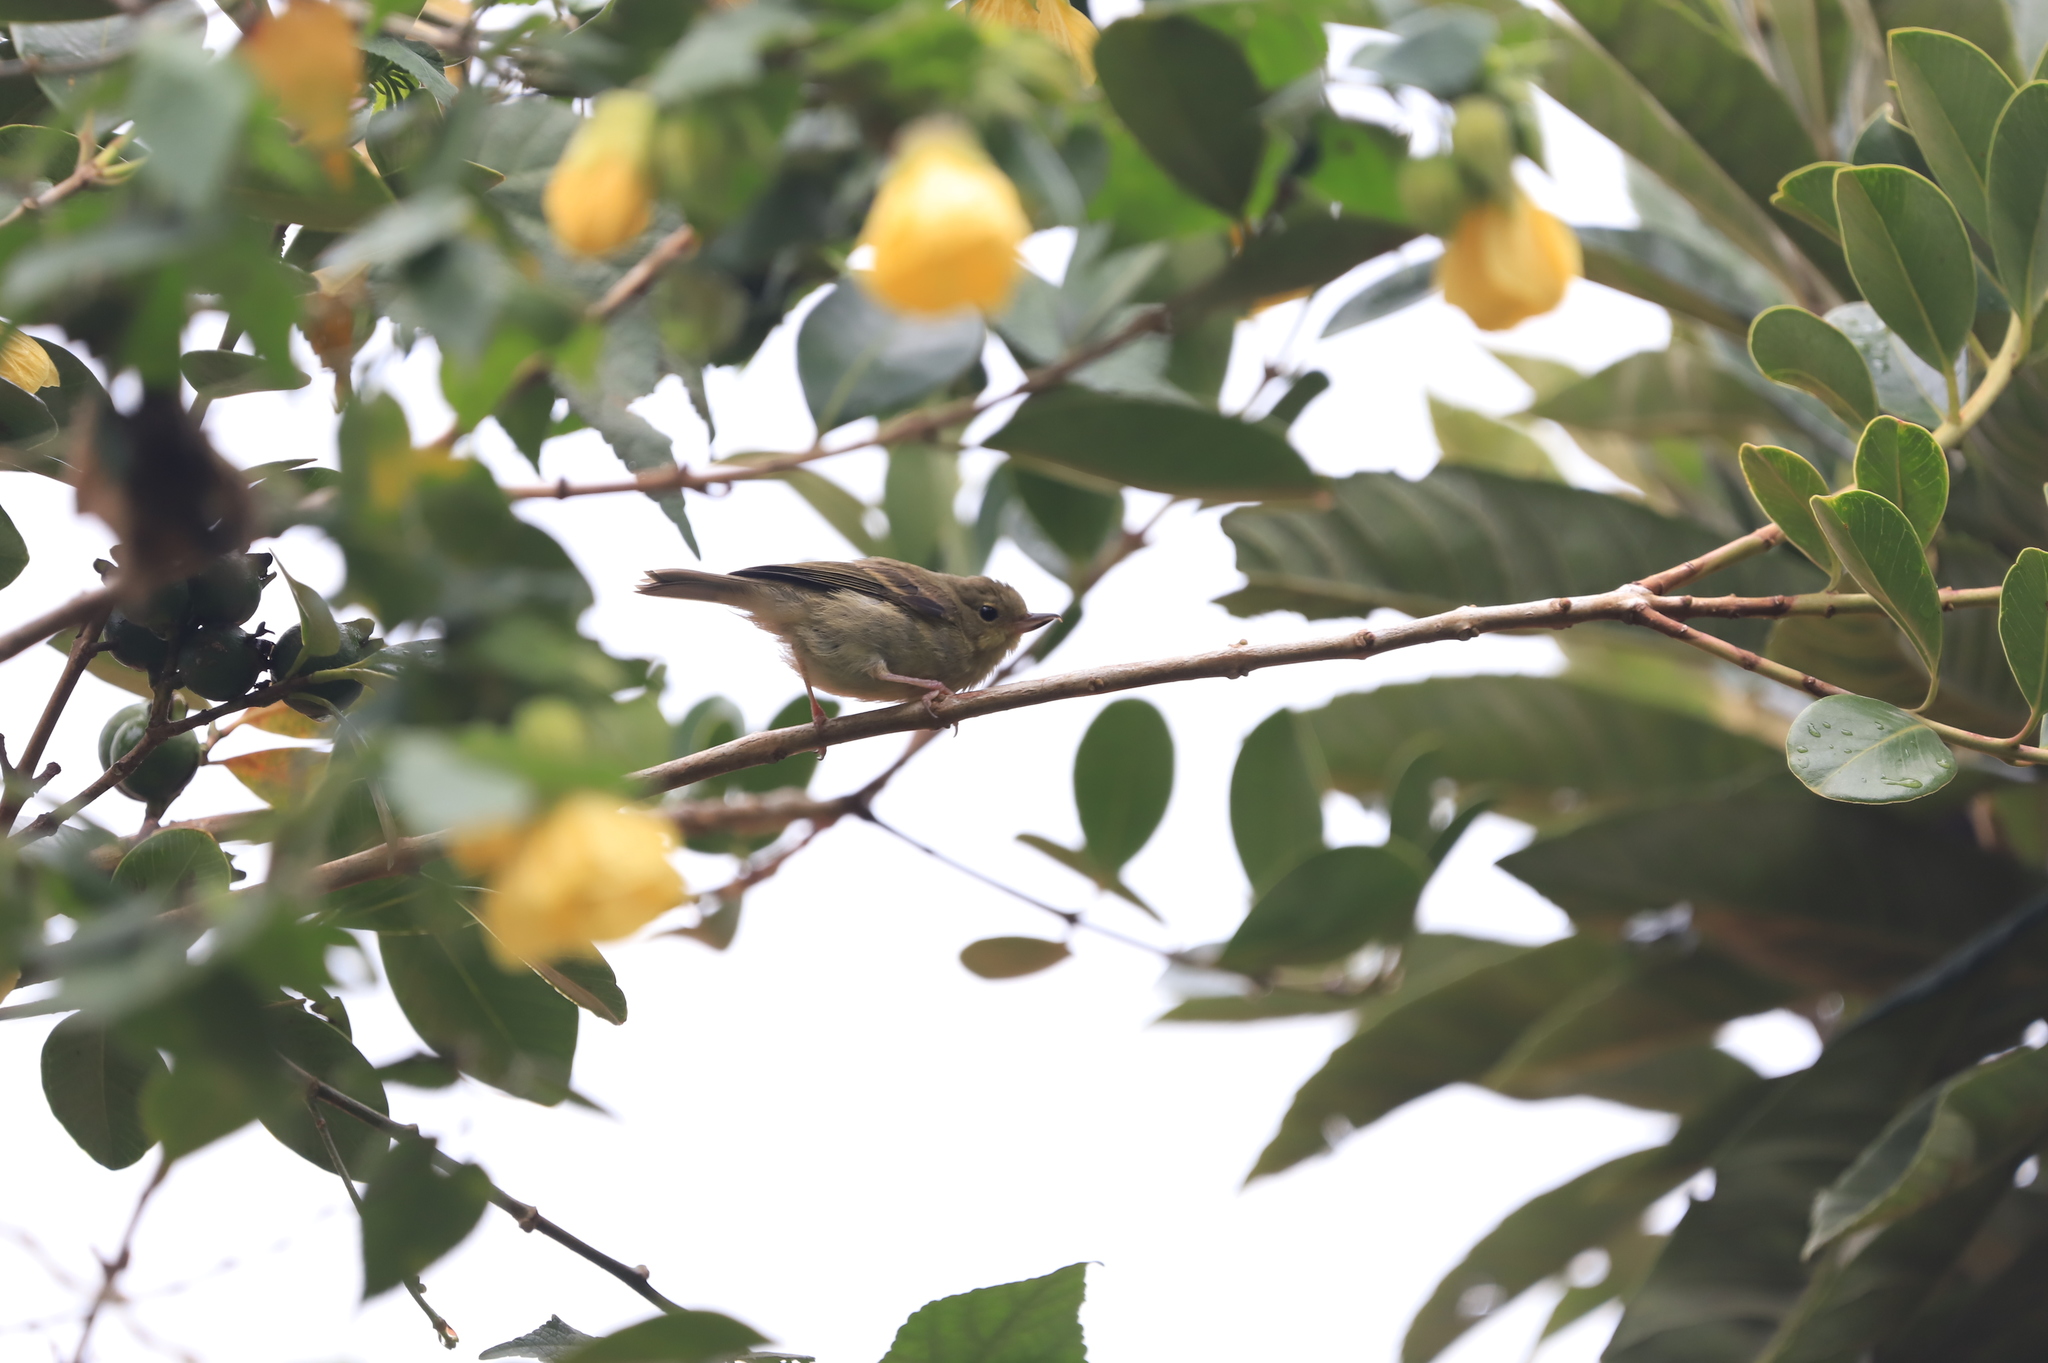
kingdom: Animalia
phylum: Chordata
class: Aves
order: Passeriformes
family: Thraupidae
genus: Diglossa
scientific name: Diglossa sittoides
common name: Rusty flowerpiercer
